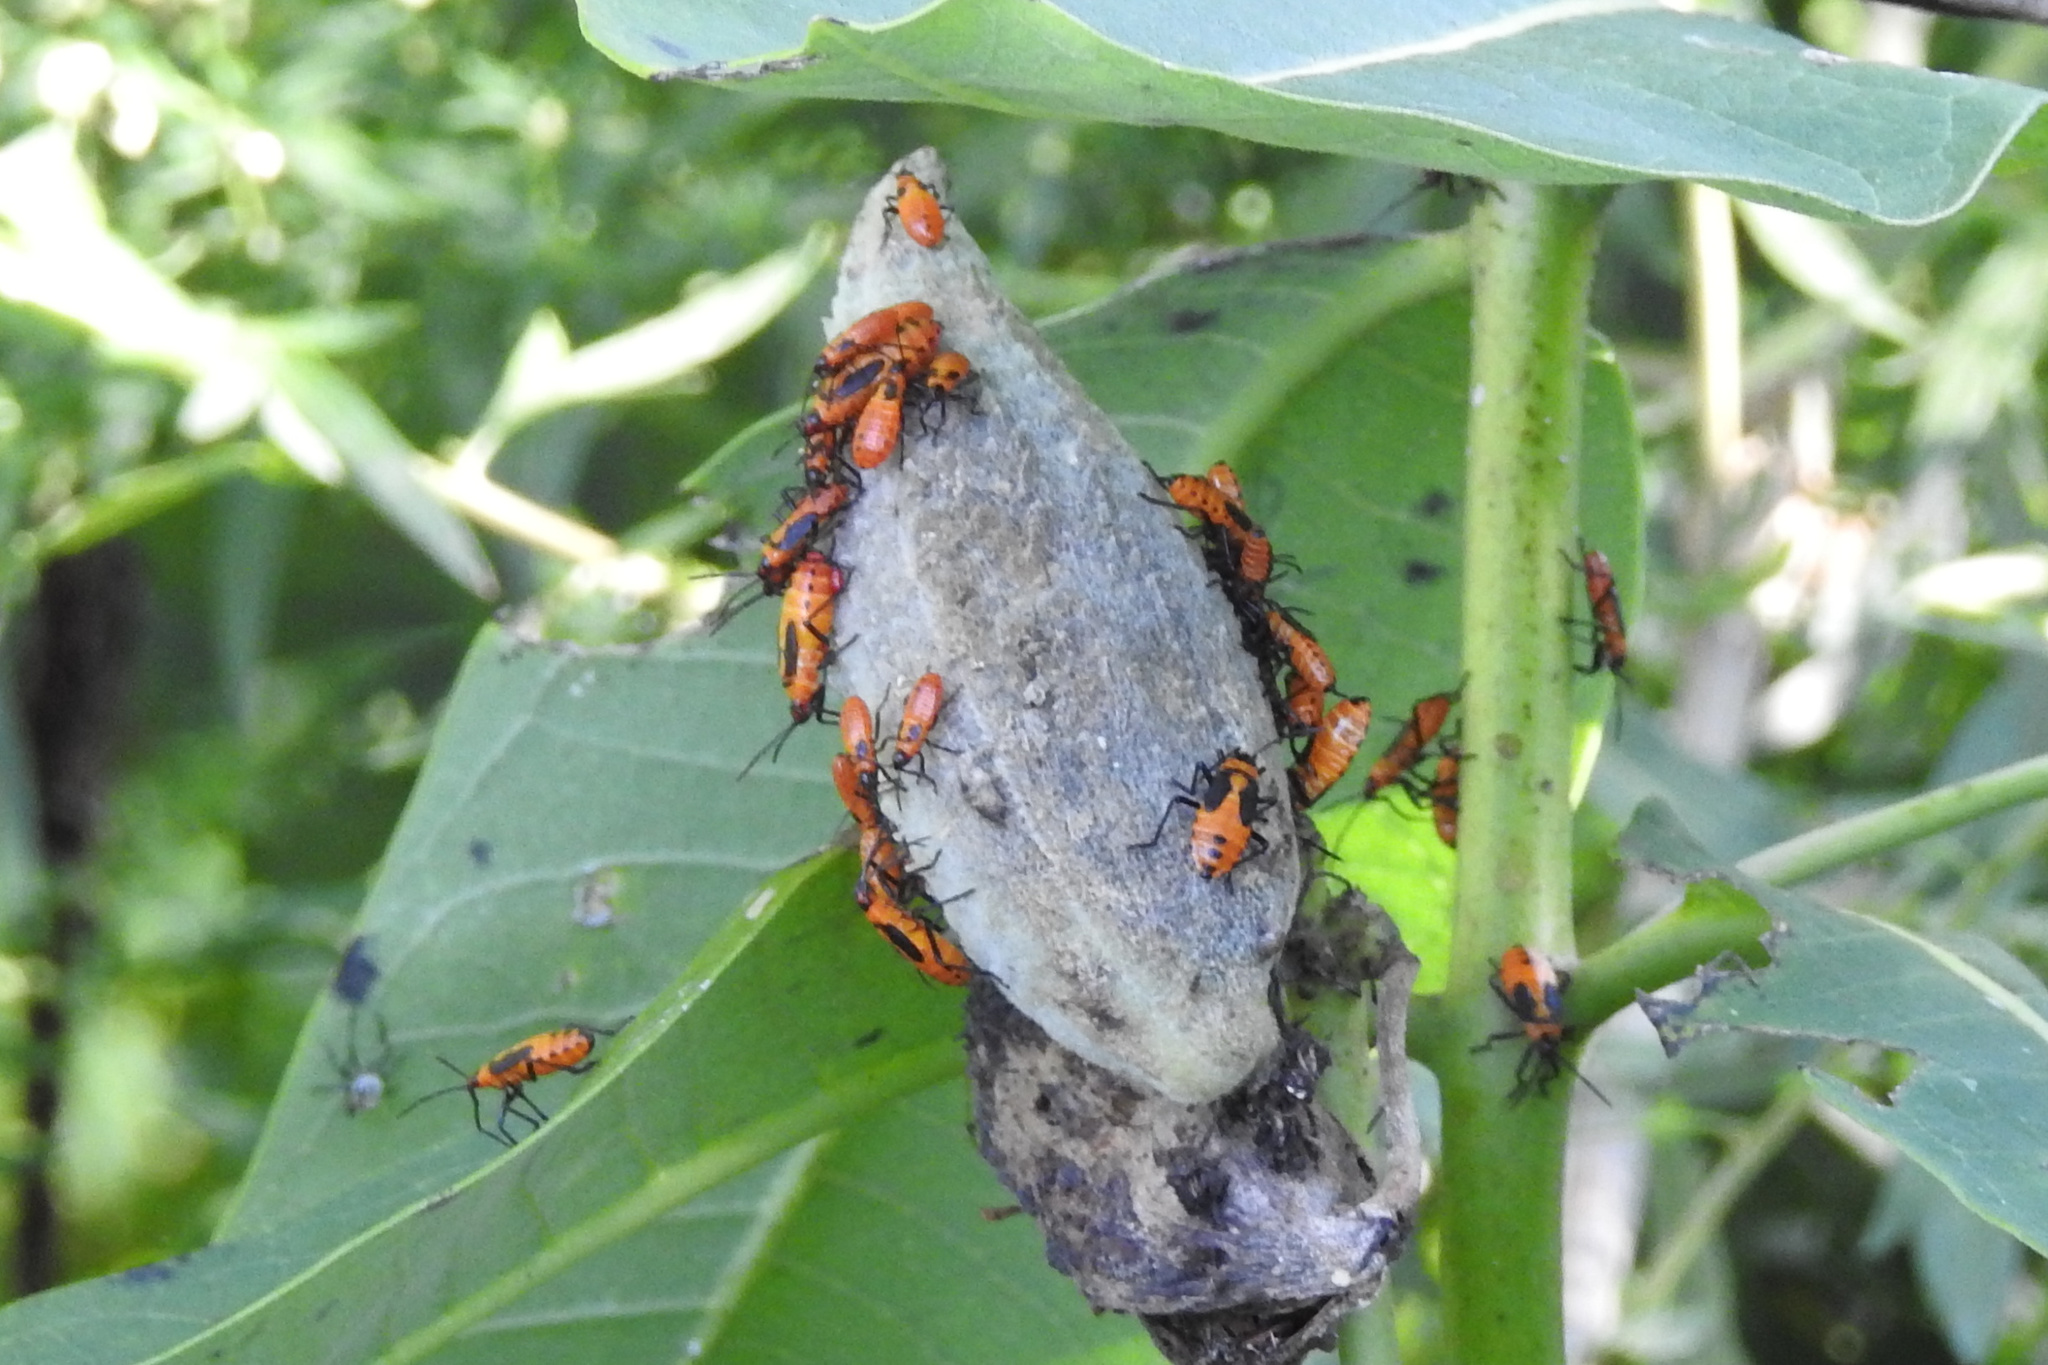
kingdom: Animalia
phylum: Arthropoda
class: Insecta
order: Hemiptera
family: Lygaeidae
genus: Oncopeltus
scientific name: Oncopeltus fasciatus
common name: Large milkweed bug
